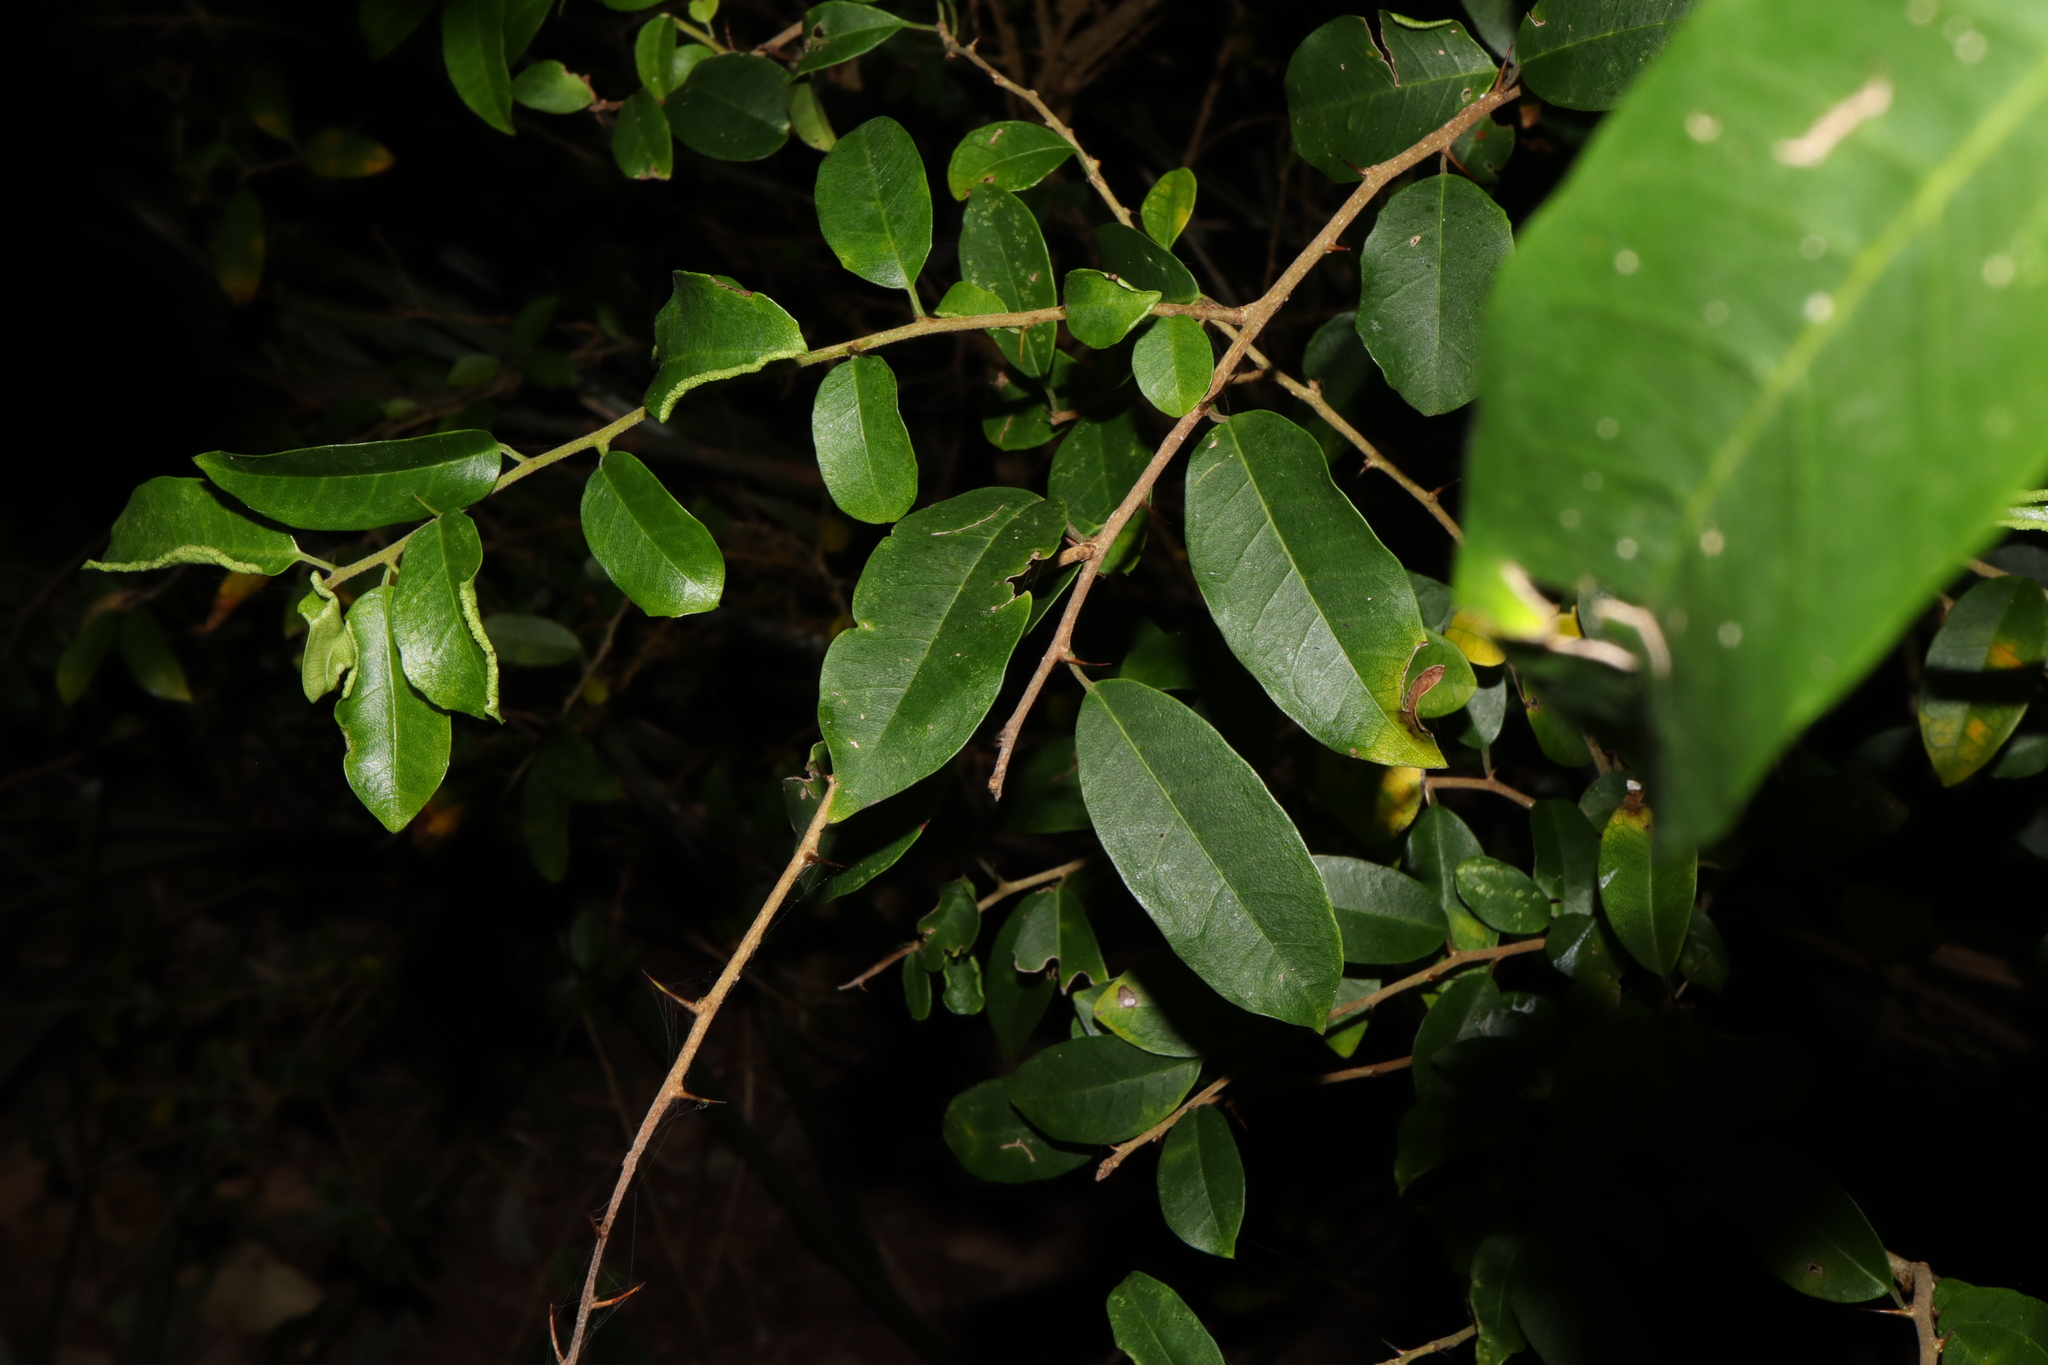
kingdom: Plantae
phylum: Tracheophyta
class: Magnoliopsida
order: Rosales
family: Moraceae
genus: Maclura
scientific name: Maclura cochinchinensis
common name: Cockspurthorn
